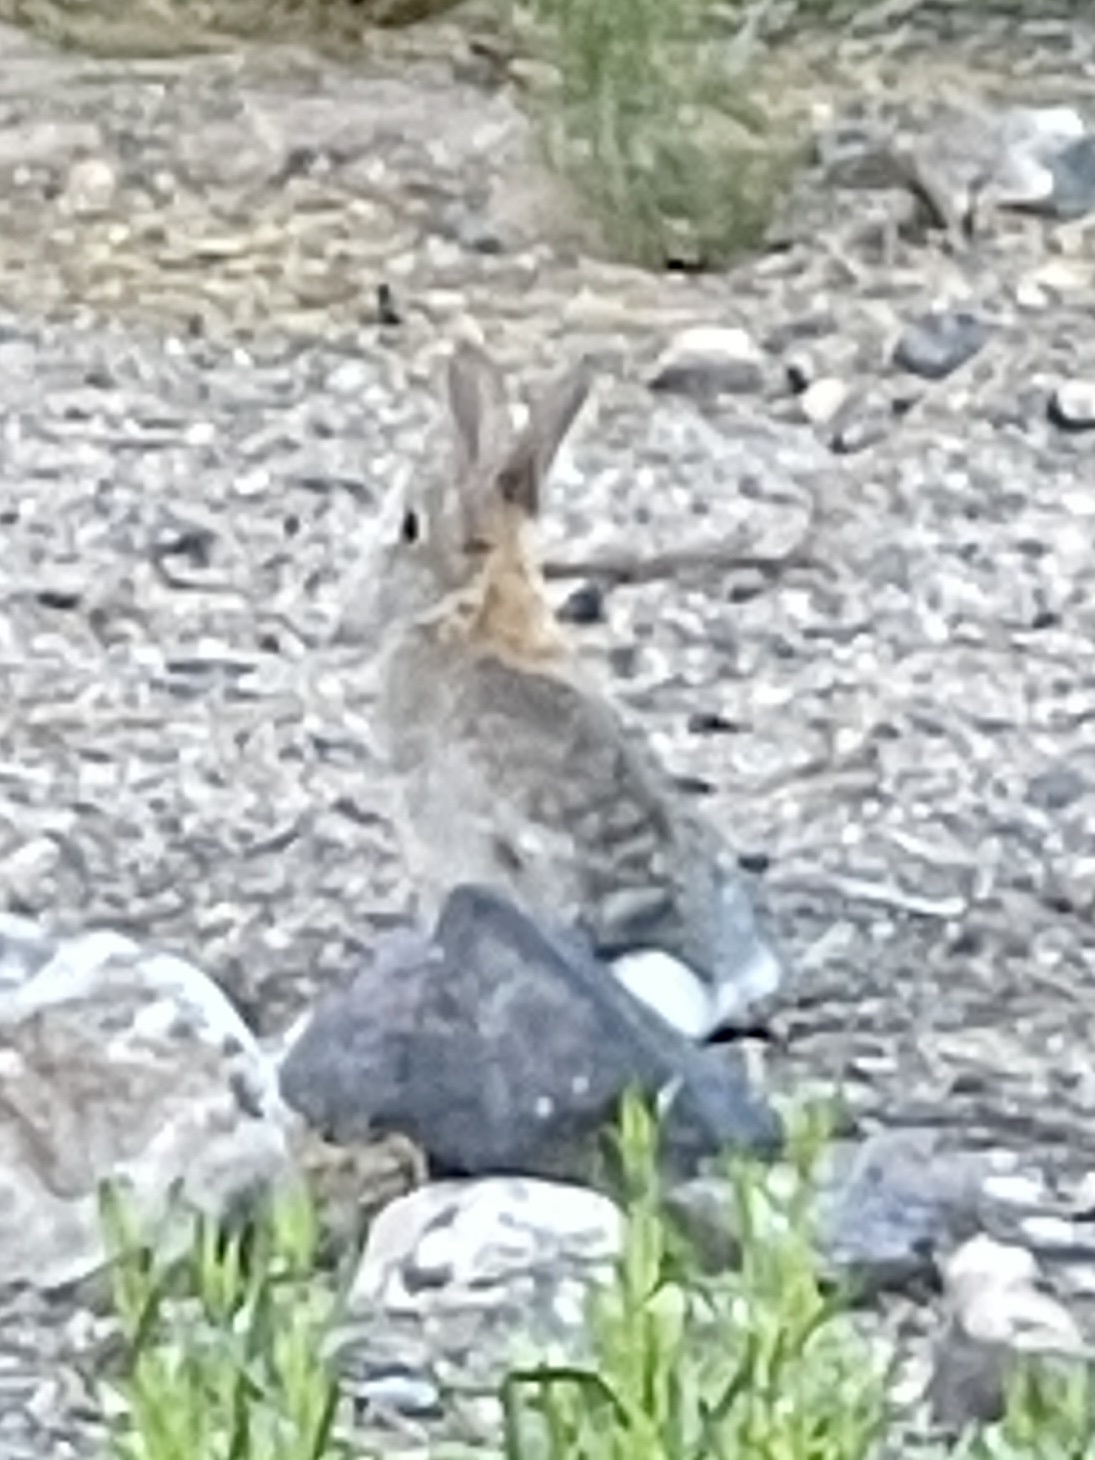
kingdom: Animalia
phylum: Chordata
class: Mammalia
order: Lagomorpha
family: Leporidae
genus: Sylvilagus
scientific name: Sylvilagus audubonii
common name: Desert cottontail
